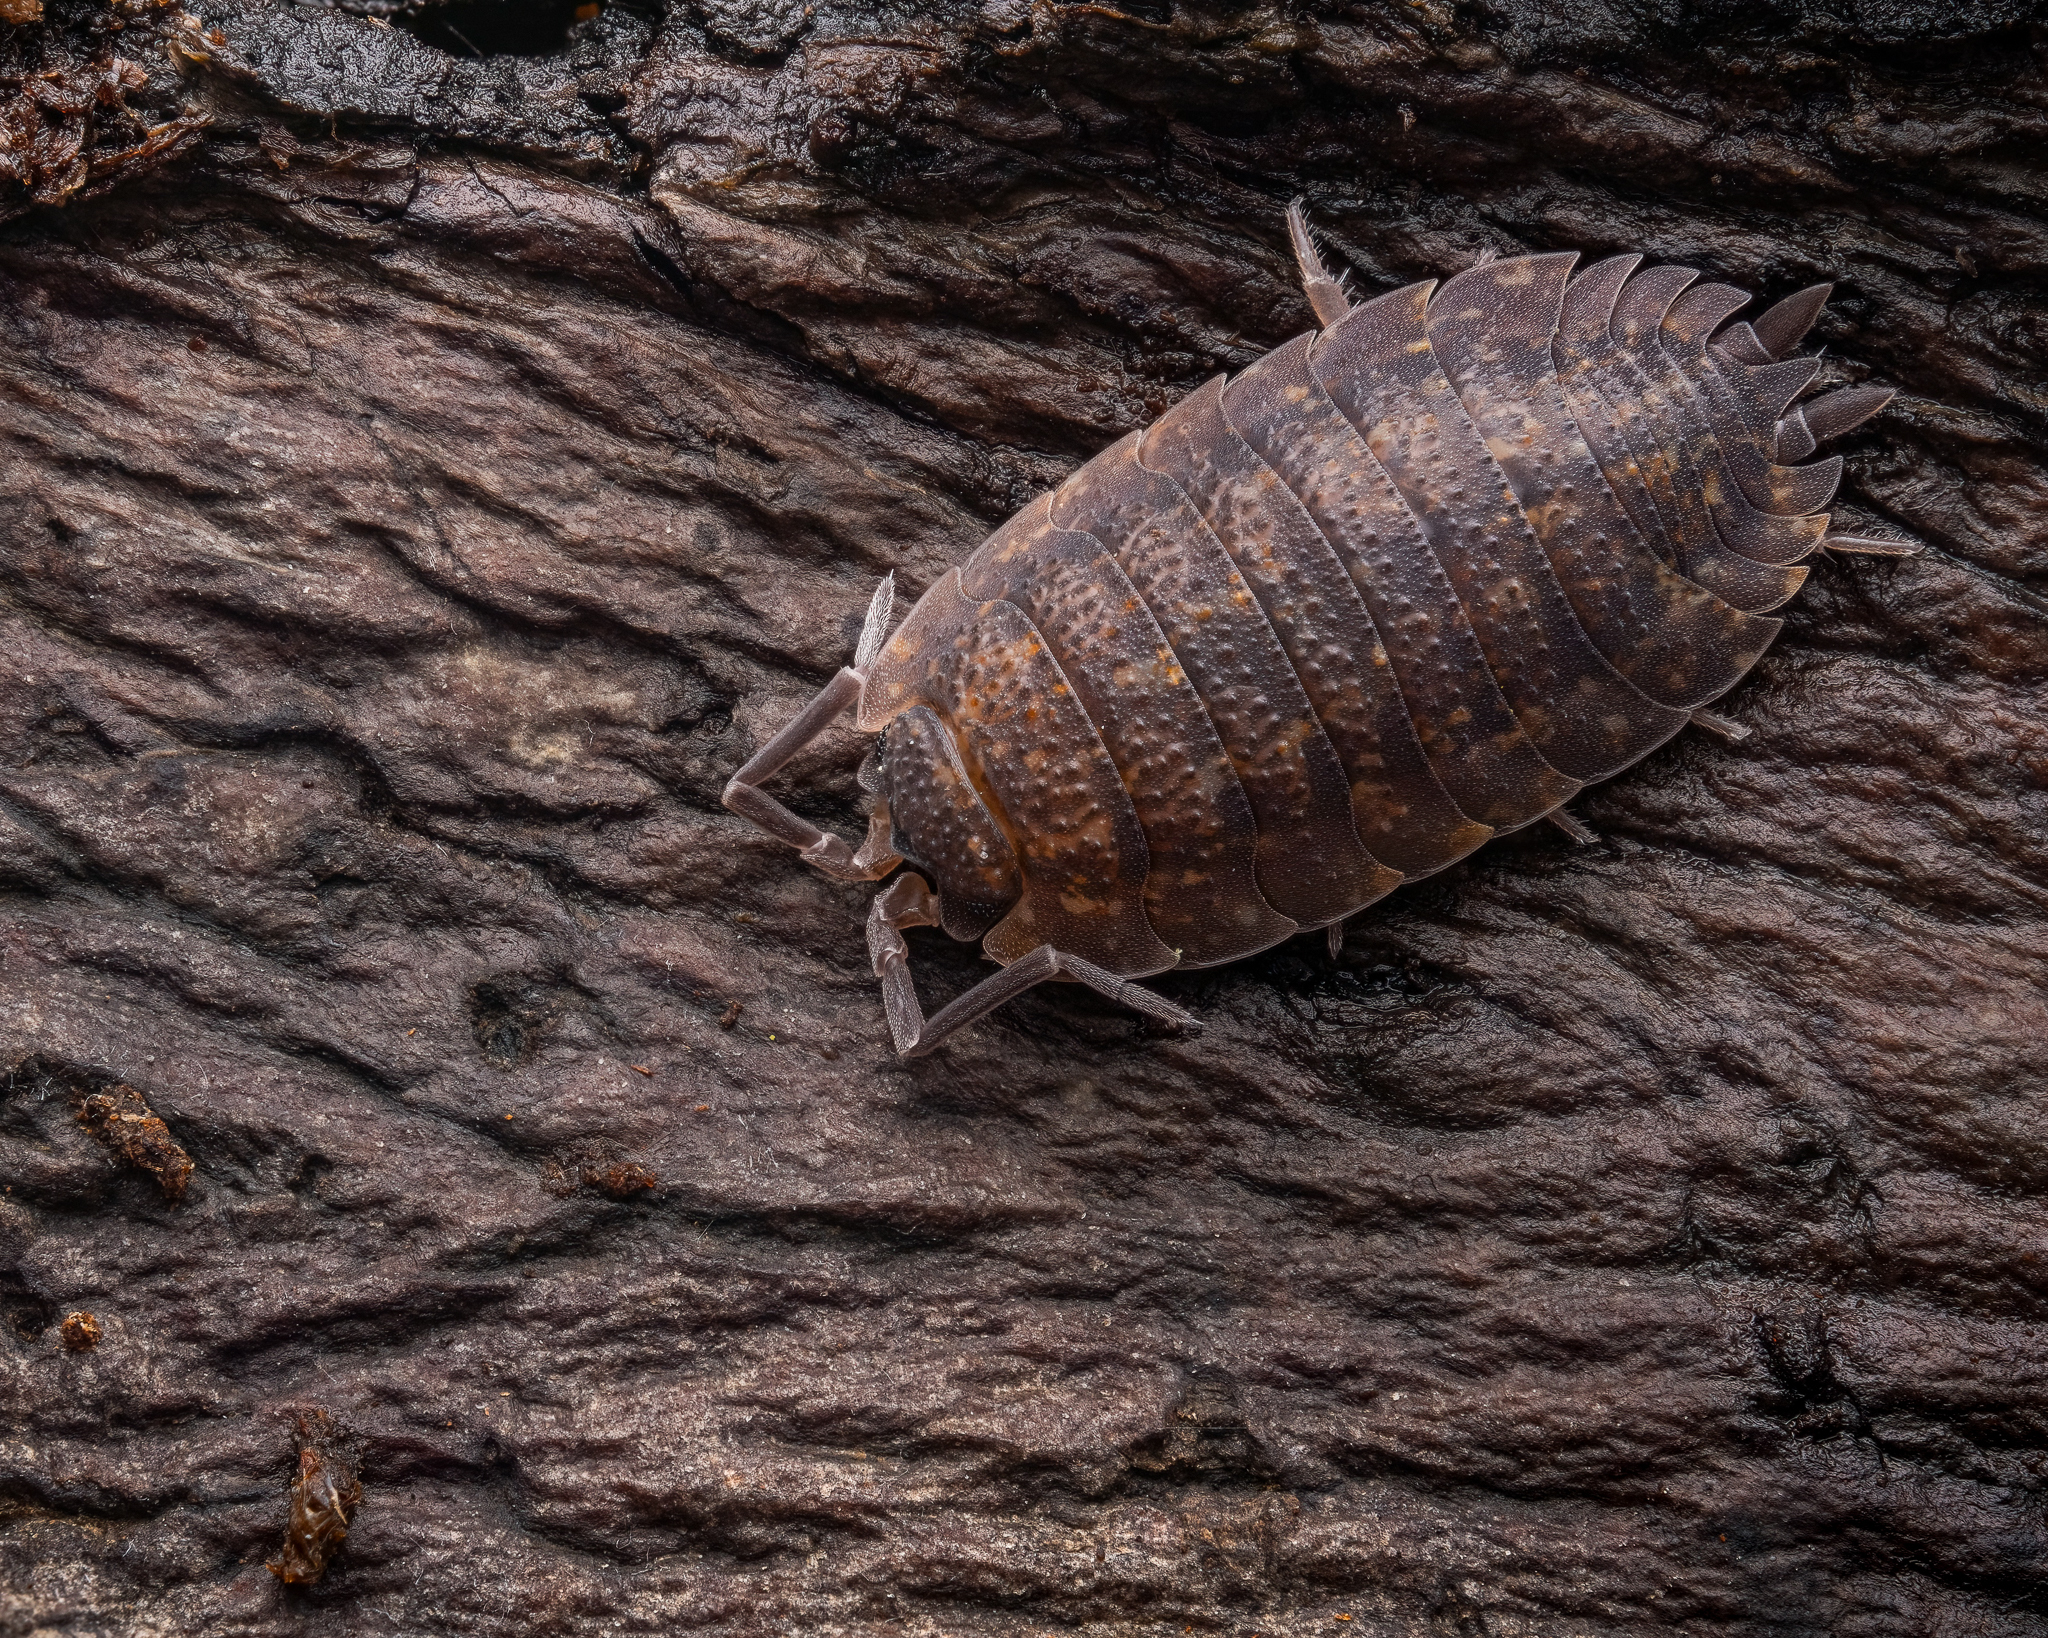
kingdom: Animalia
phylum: Arthropoda
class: Malacostraca
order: Isopoda
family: Porcellionidae
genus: Porcellio
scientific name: Porcellio scaber
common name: Common rough woodlouse
